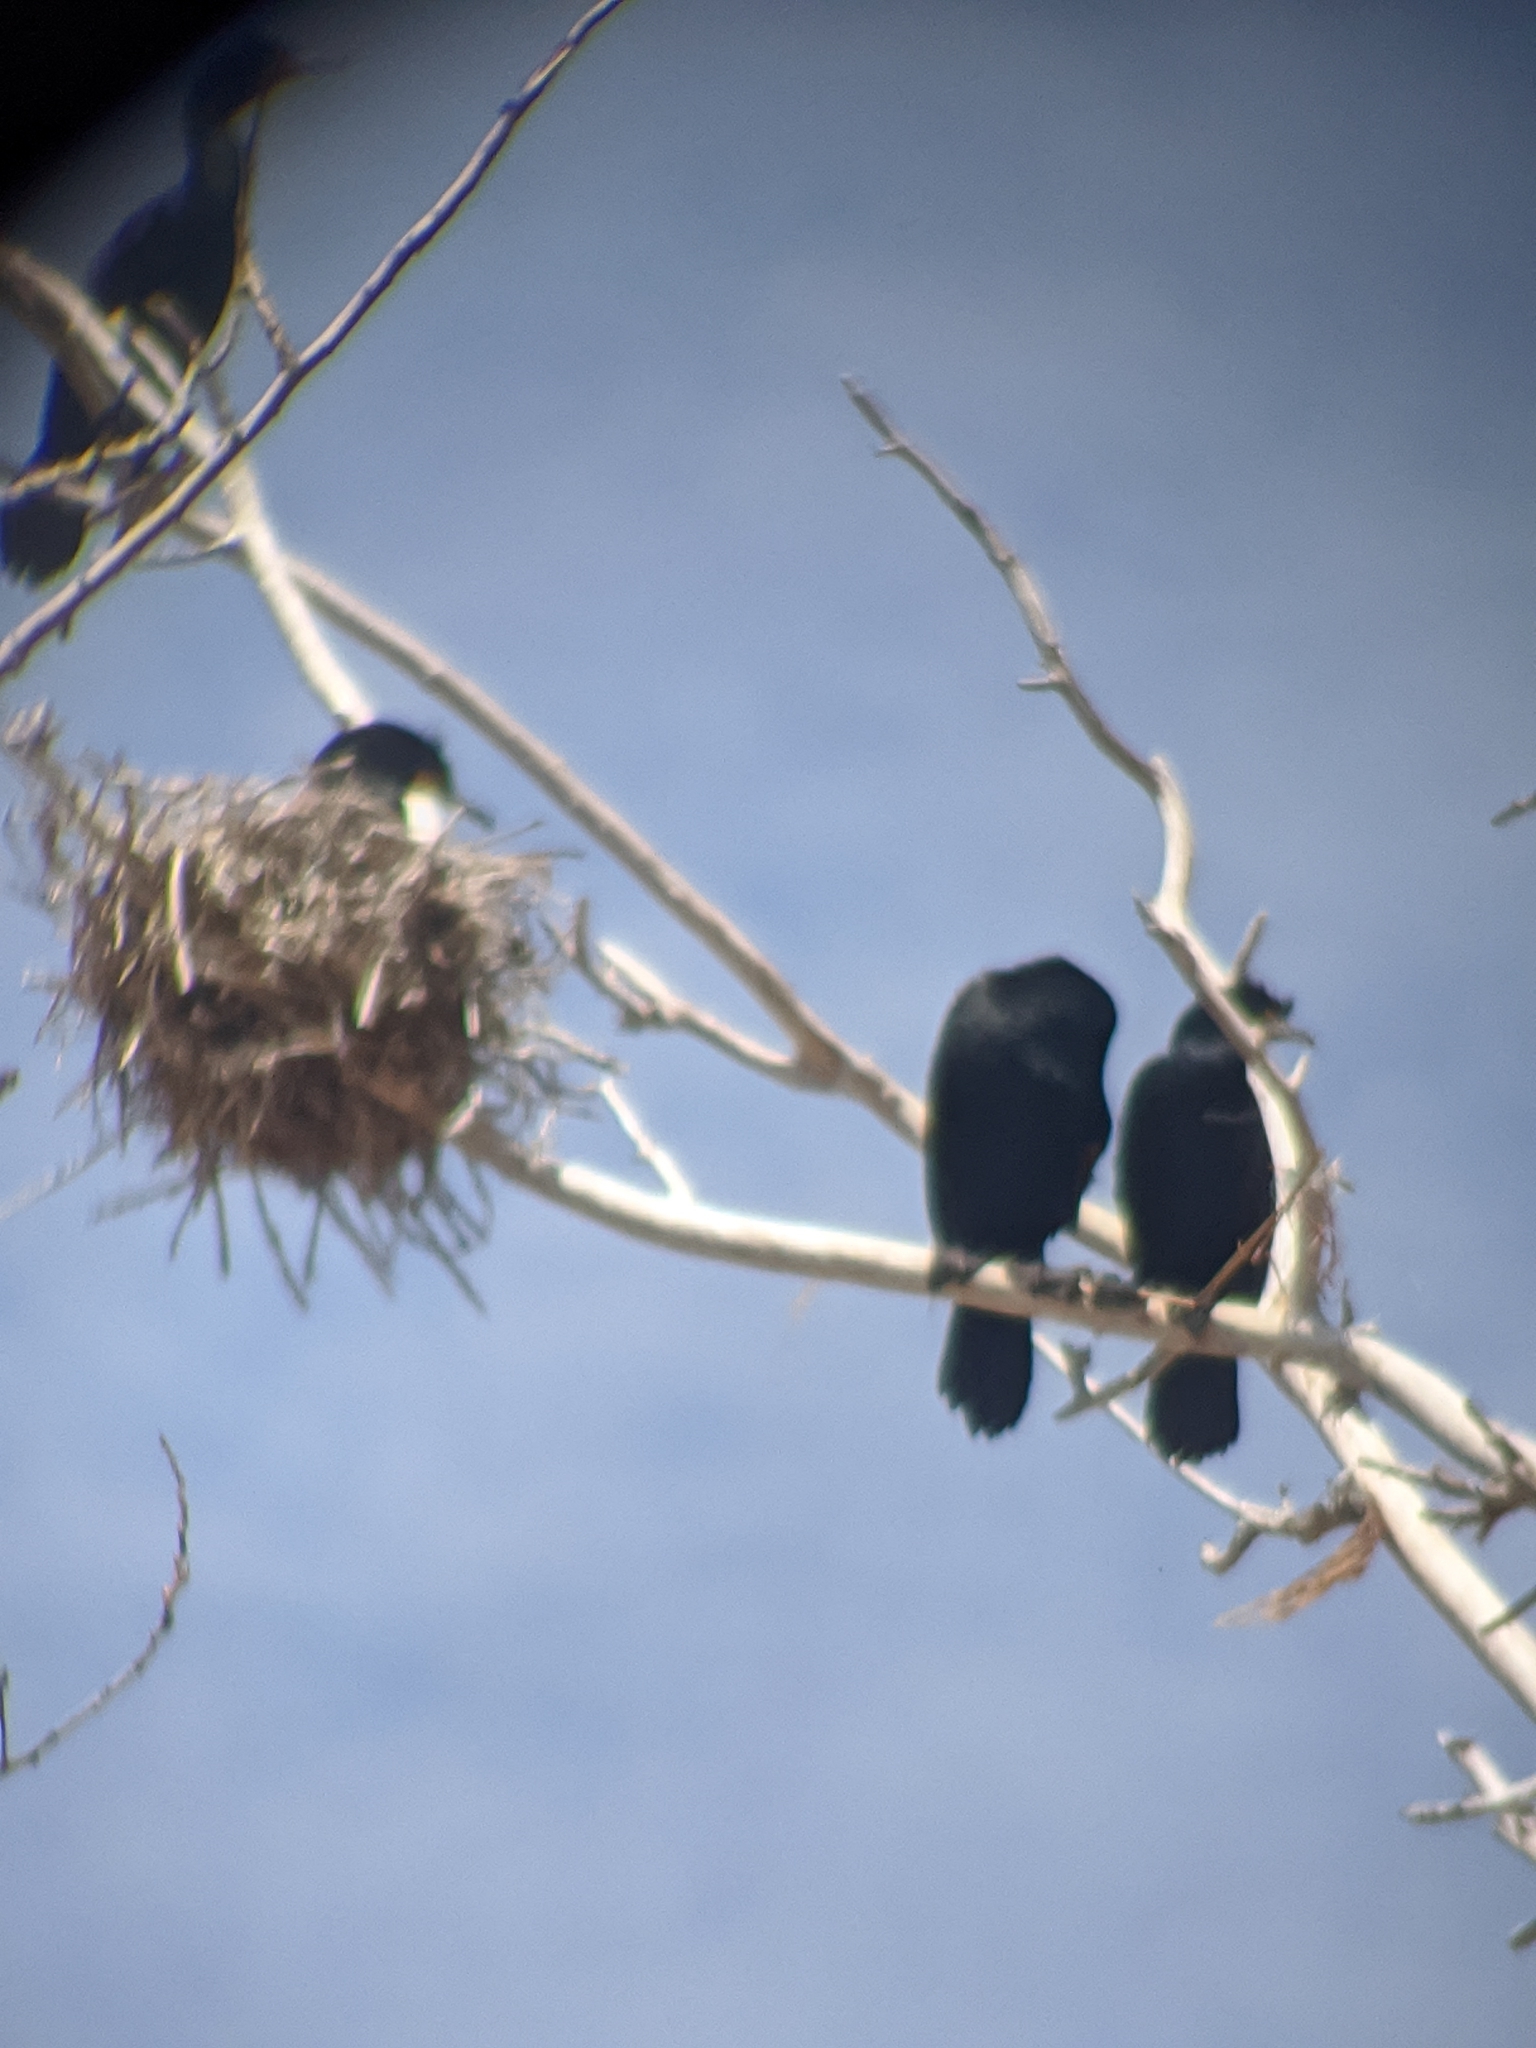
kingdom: Animalia
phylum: Chordata
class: Aves
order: Suliformes
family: Phalacrocoracidae
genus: Phalacrocorax
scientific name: Phalacrocorax auritus
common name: Double-crested cormorant
